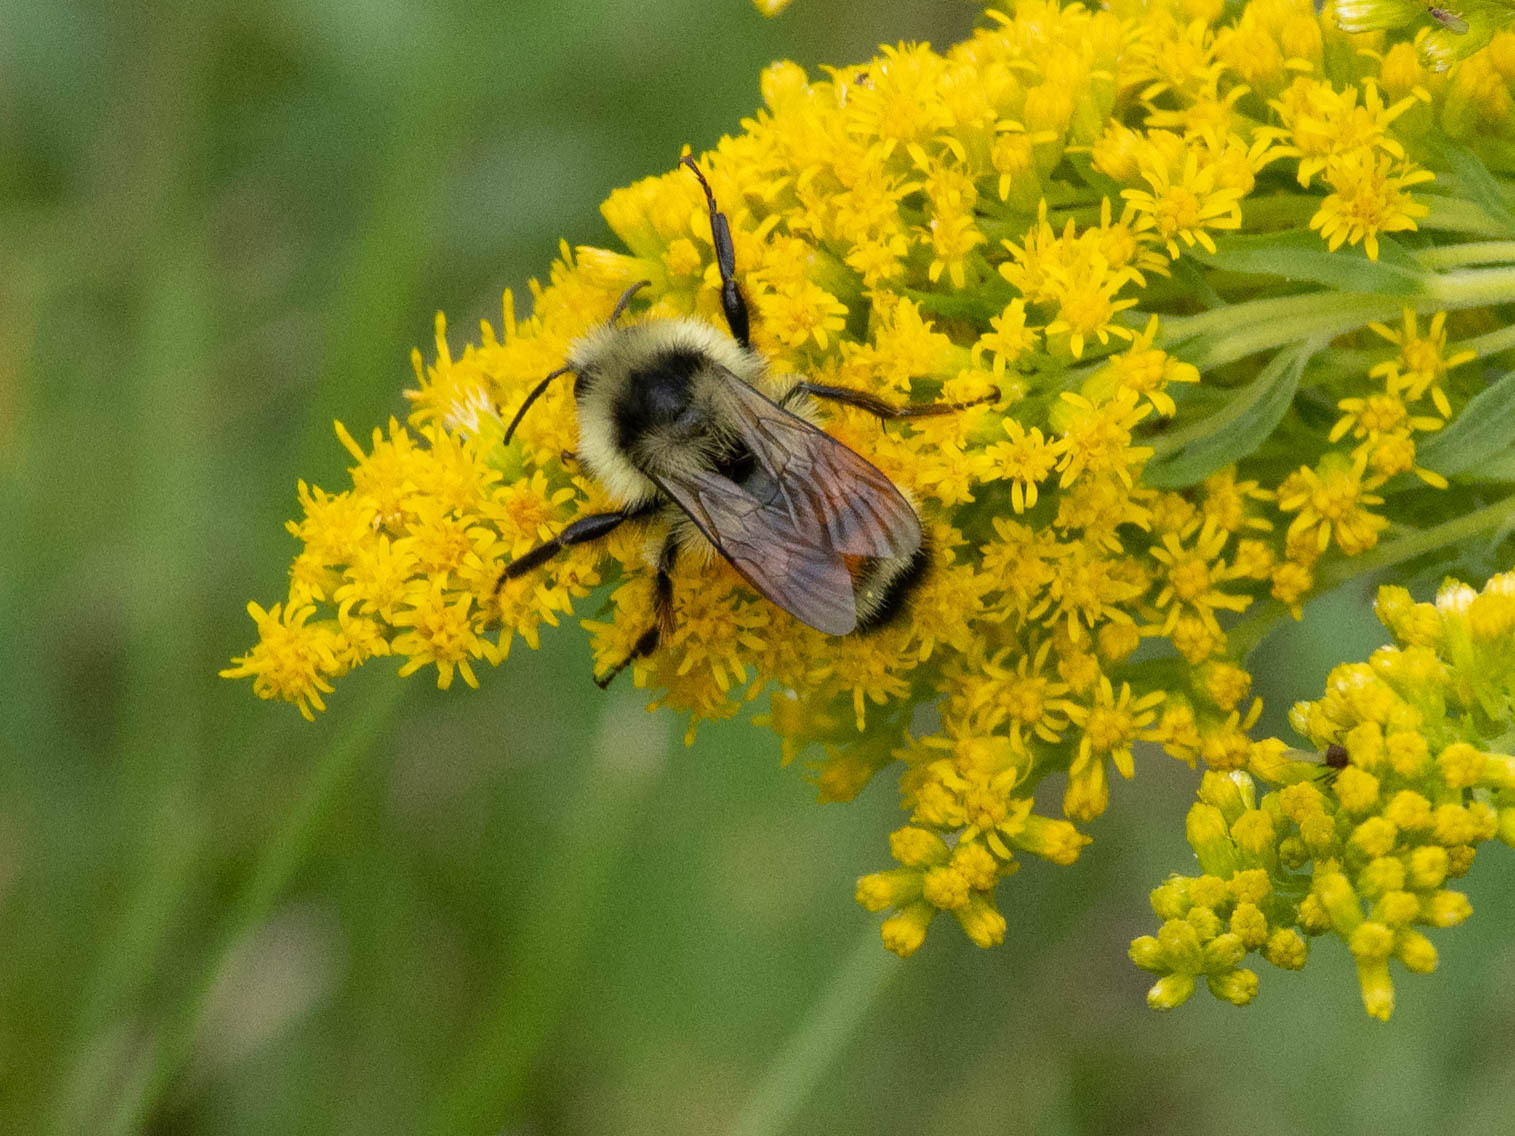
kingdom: Animalia
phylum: Arthropoda
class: Insecta
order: Hymenoptera
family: Apidae
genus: Bombus
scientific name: Bombus ternarius
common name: Tri-colored bumble bee
